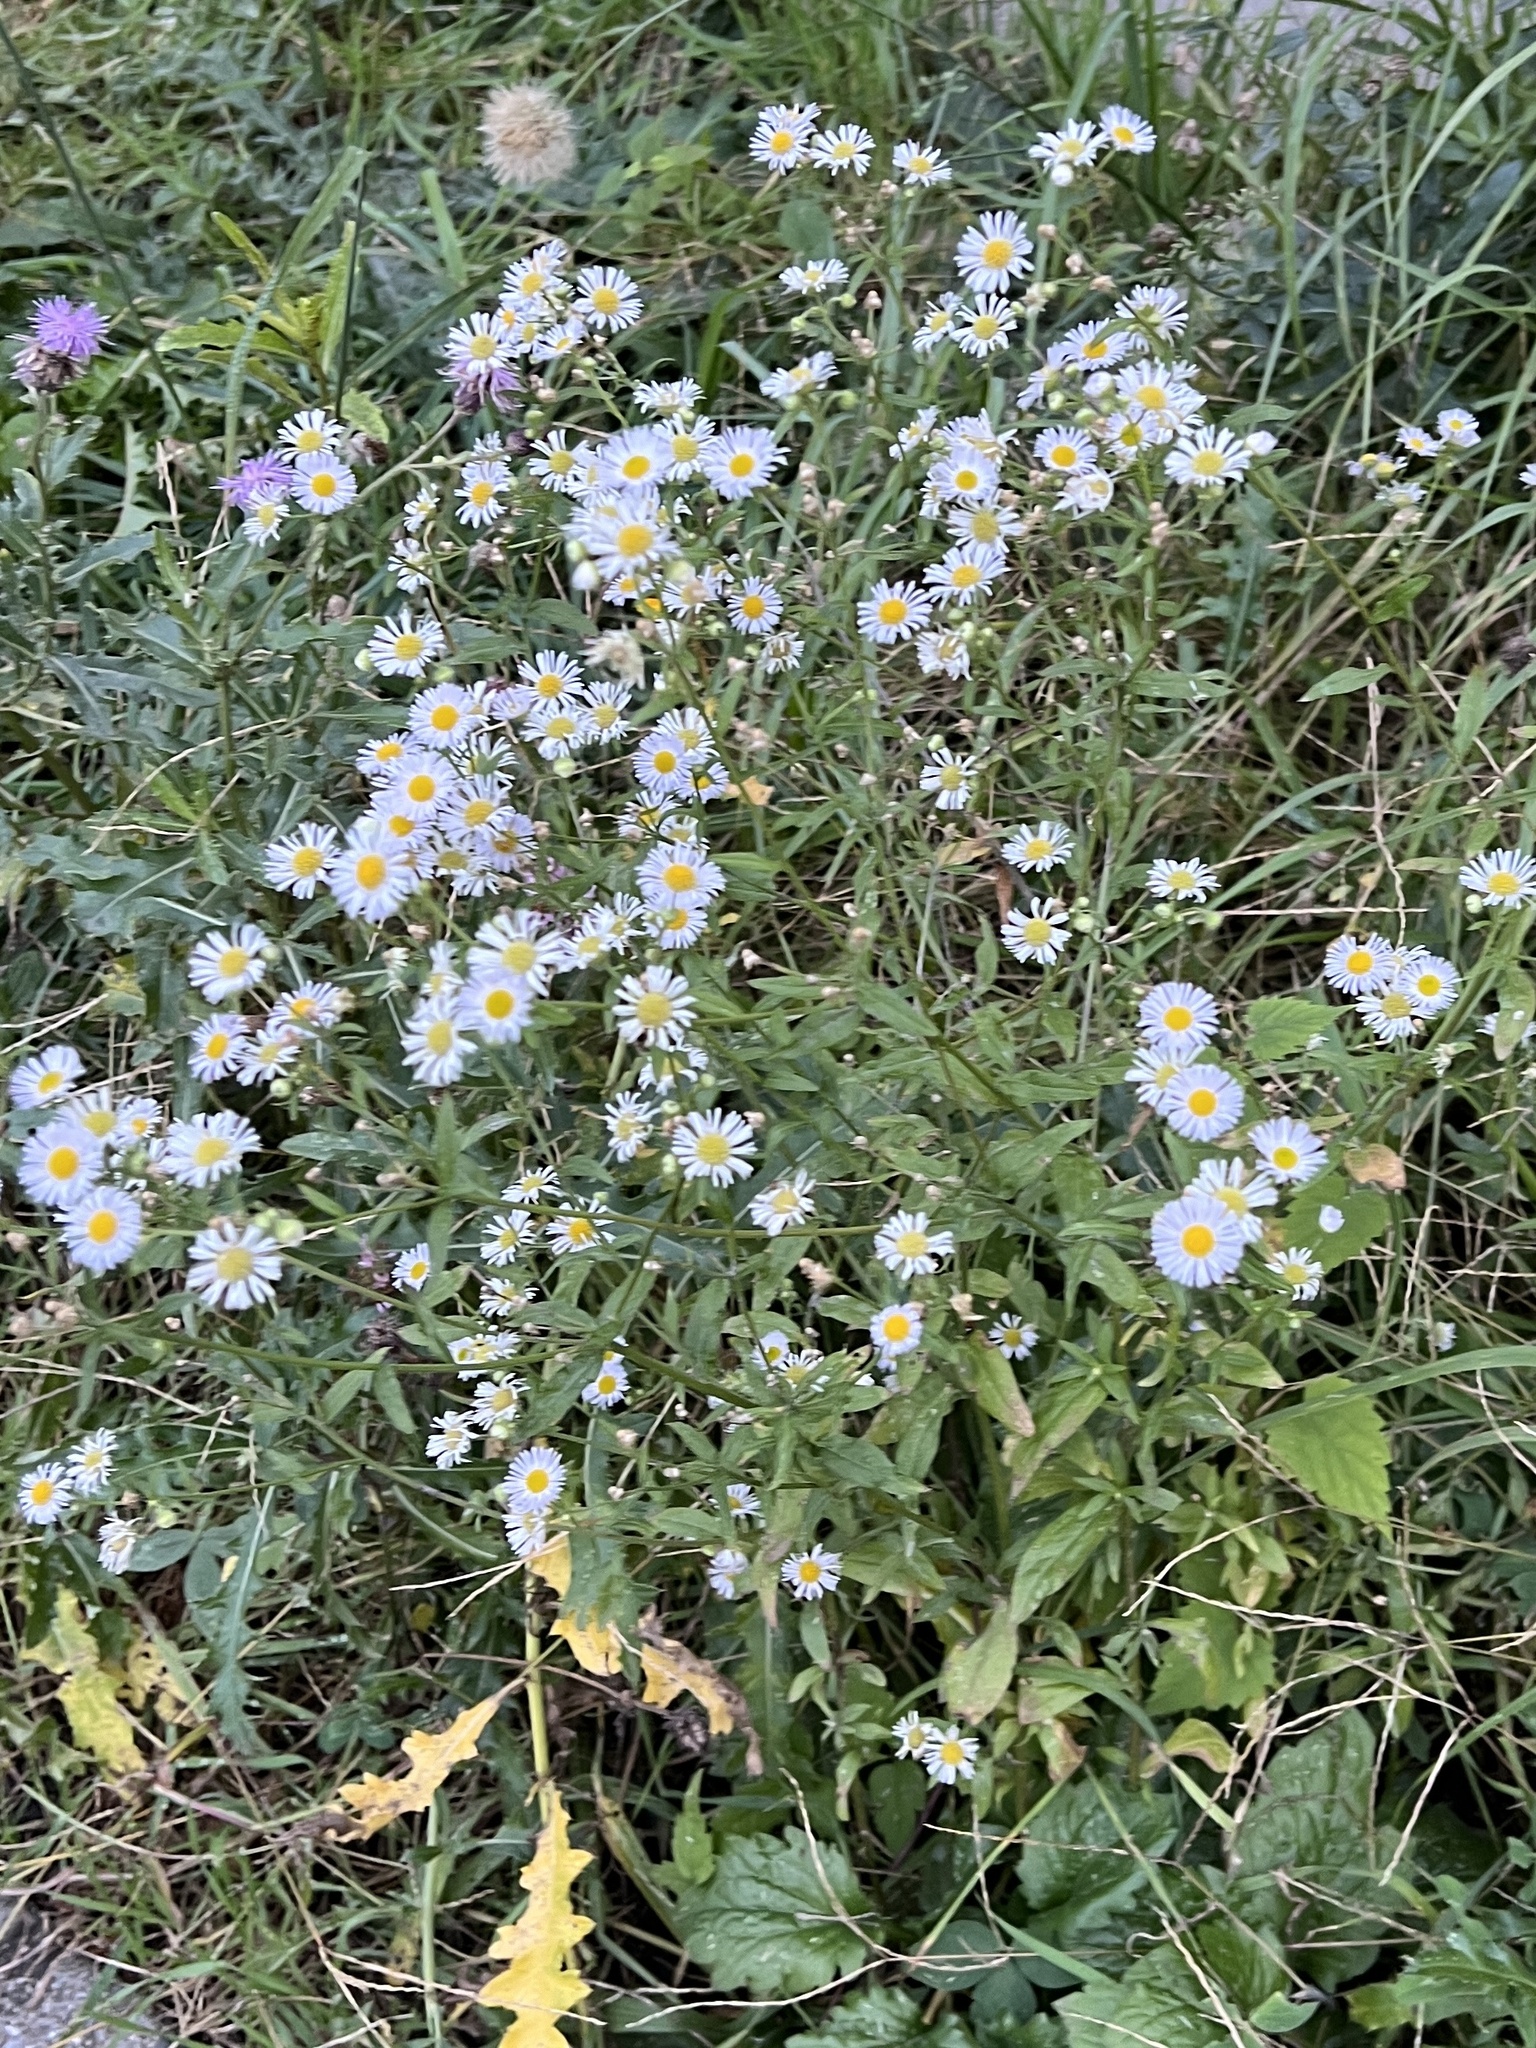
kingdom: Plantae
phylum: Tracheophyta
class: Magnoliopsida
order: Asterales
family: Asteraceae
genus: Erigeron
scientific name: Erigeron annuus
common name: Tall fleabane
